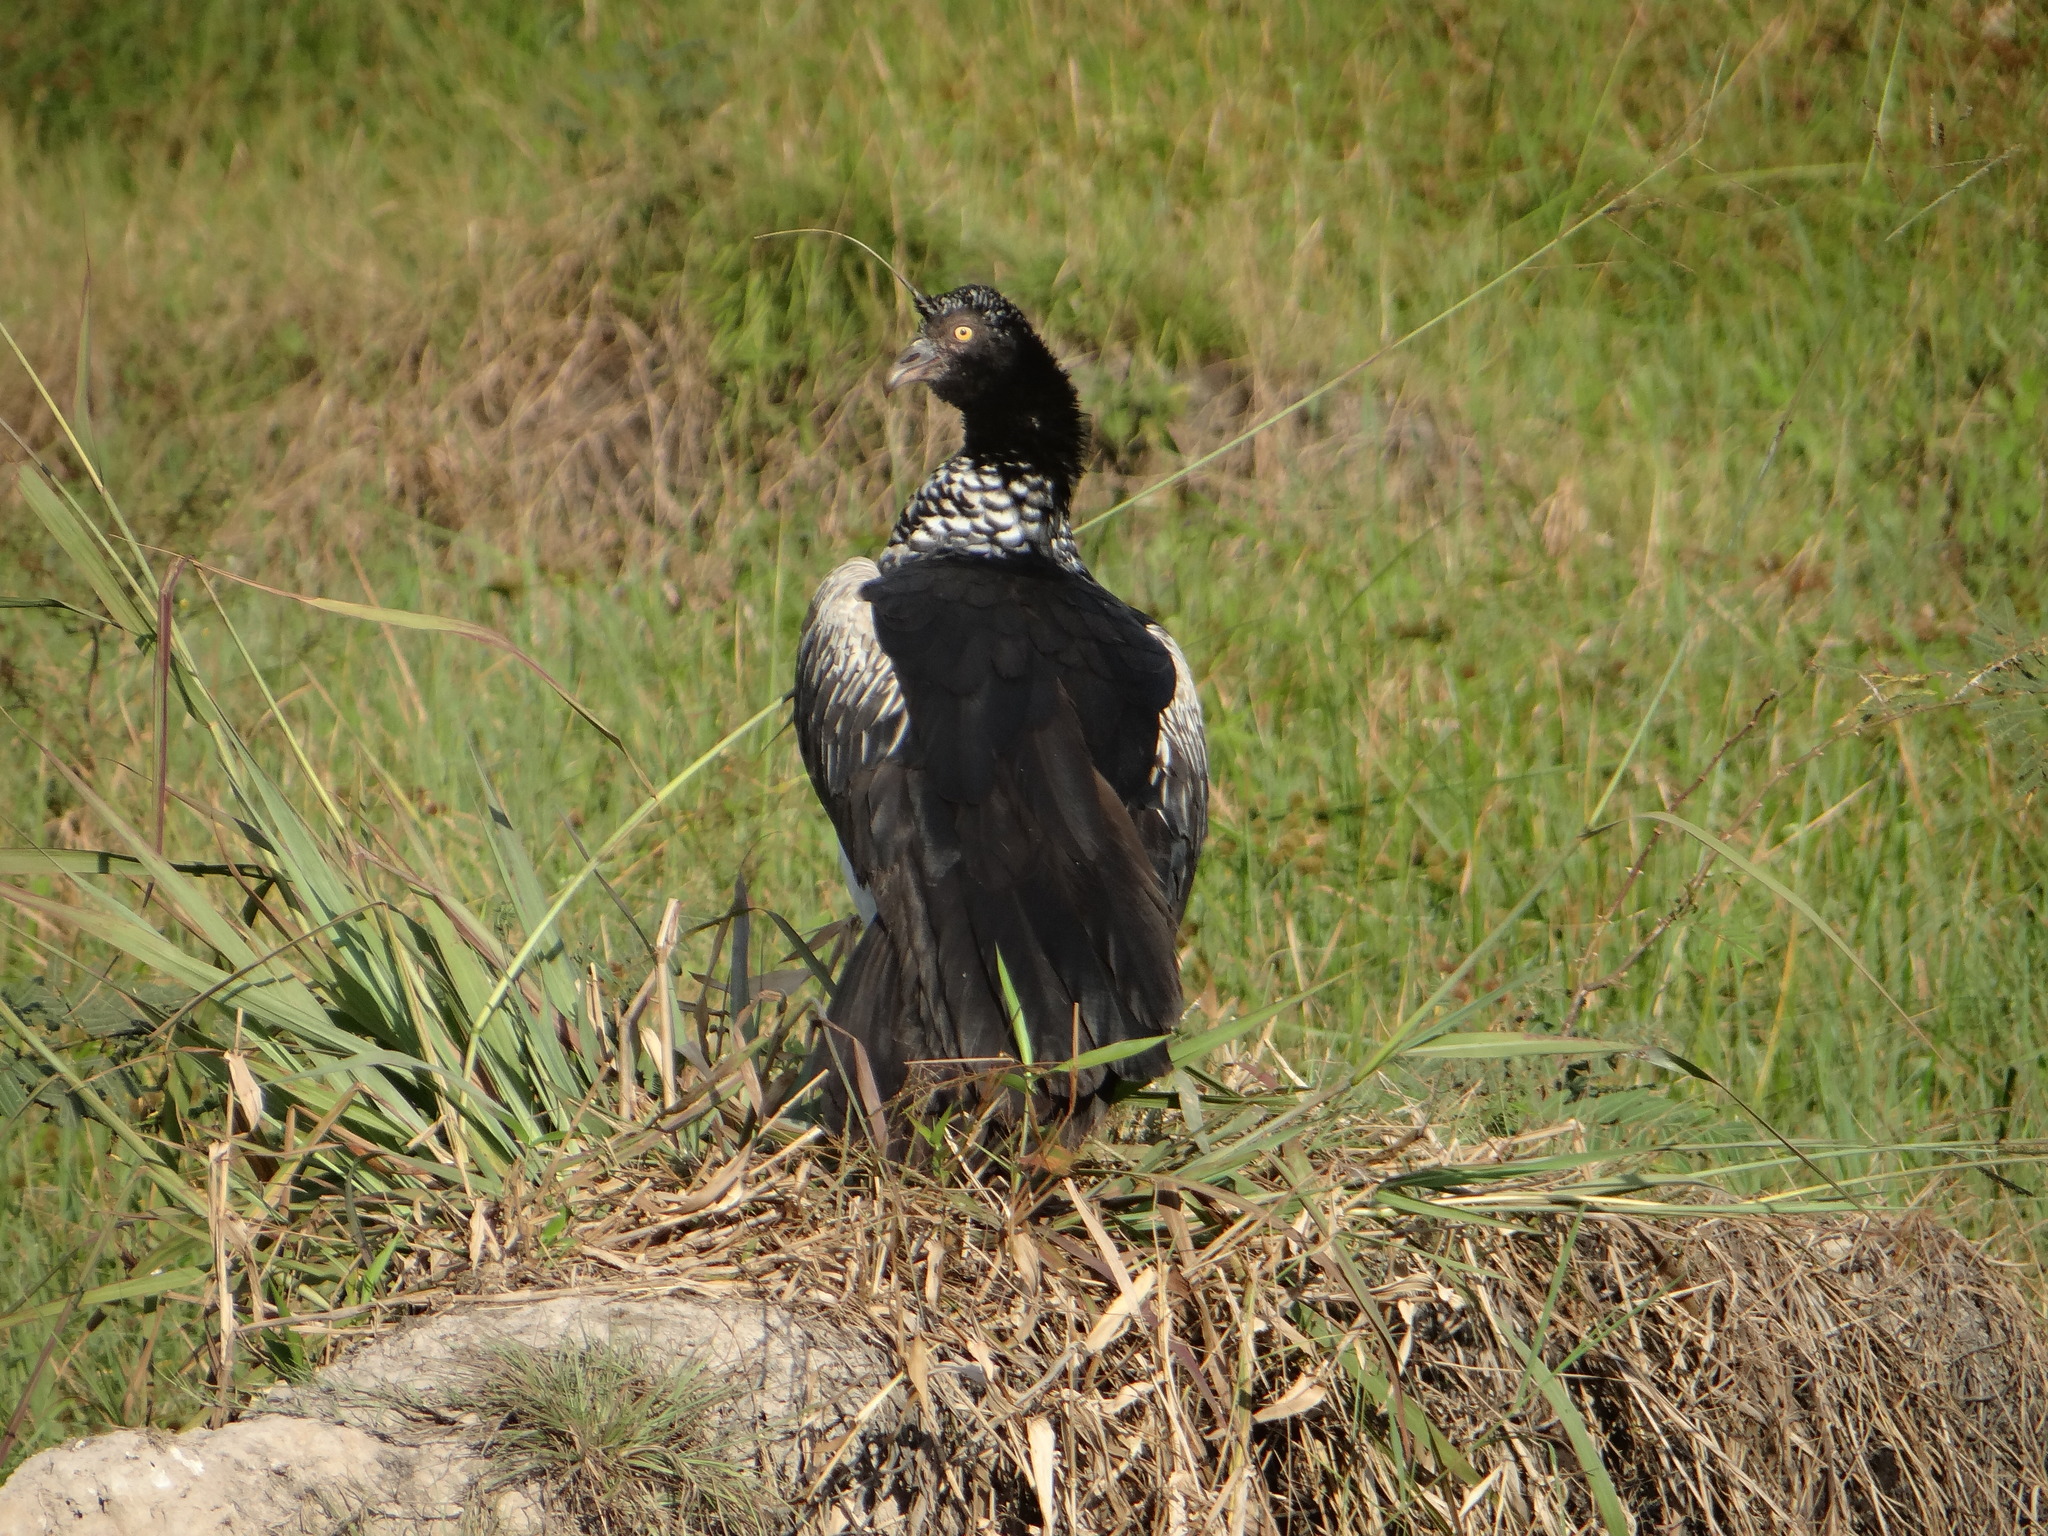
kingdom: Animalia
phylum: Chordata
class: Aves
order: Anseriformes
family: Anhimidae
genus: Anhima
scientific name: Anhima cornuta
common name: Horned screamer
